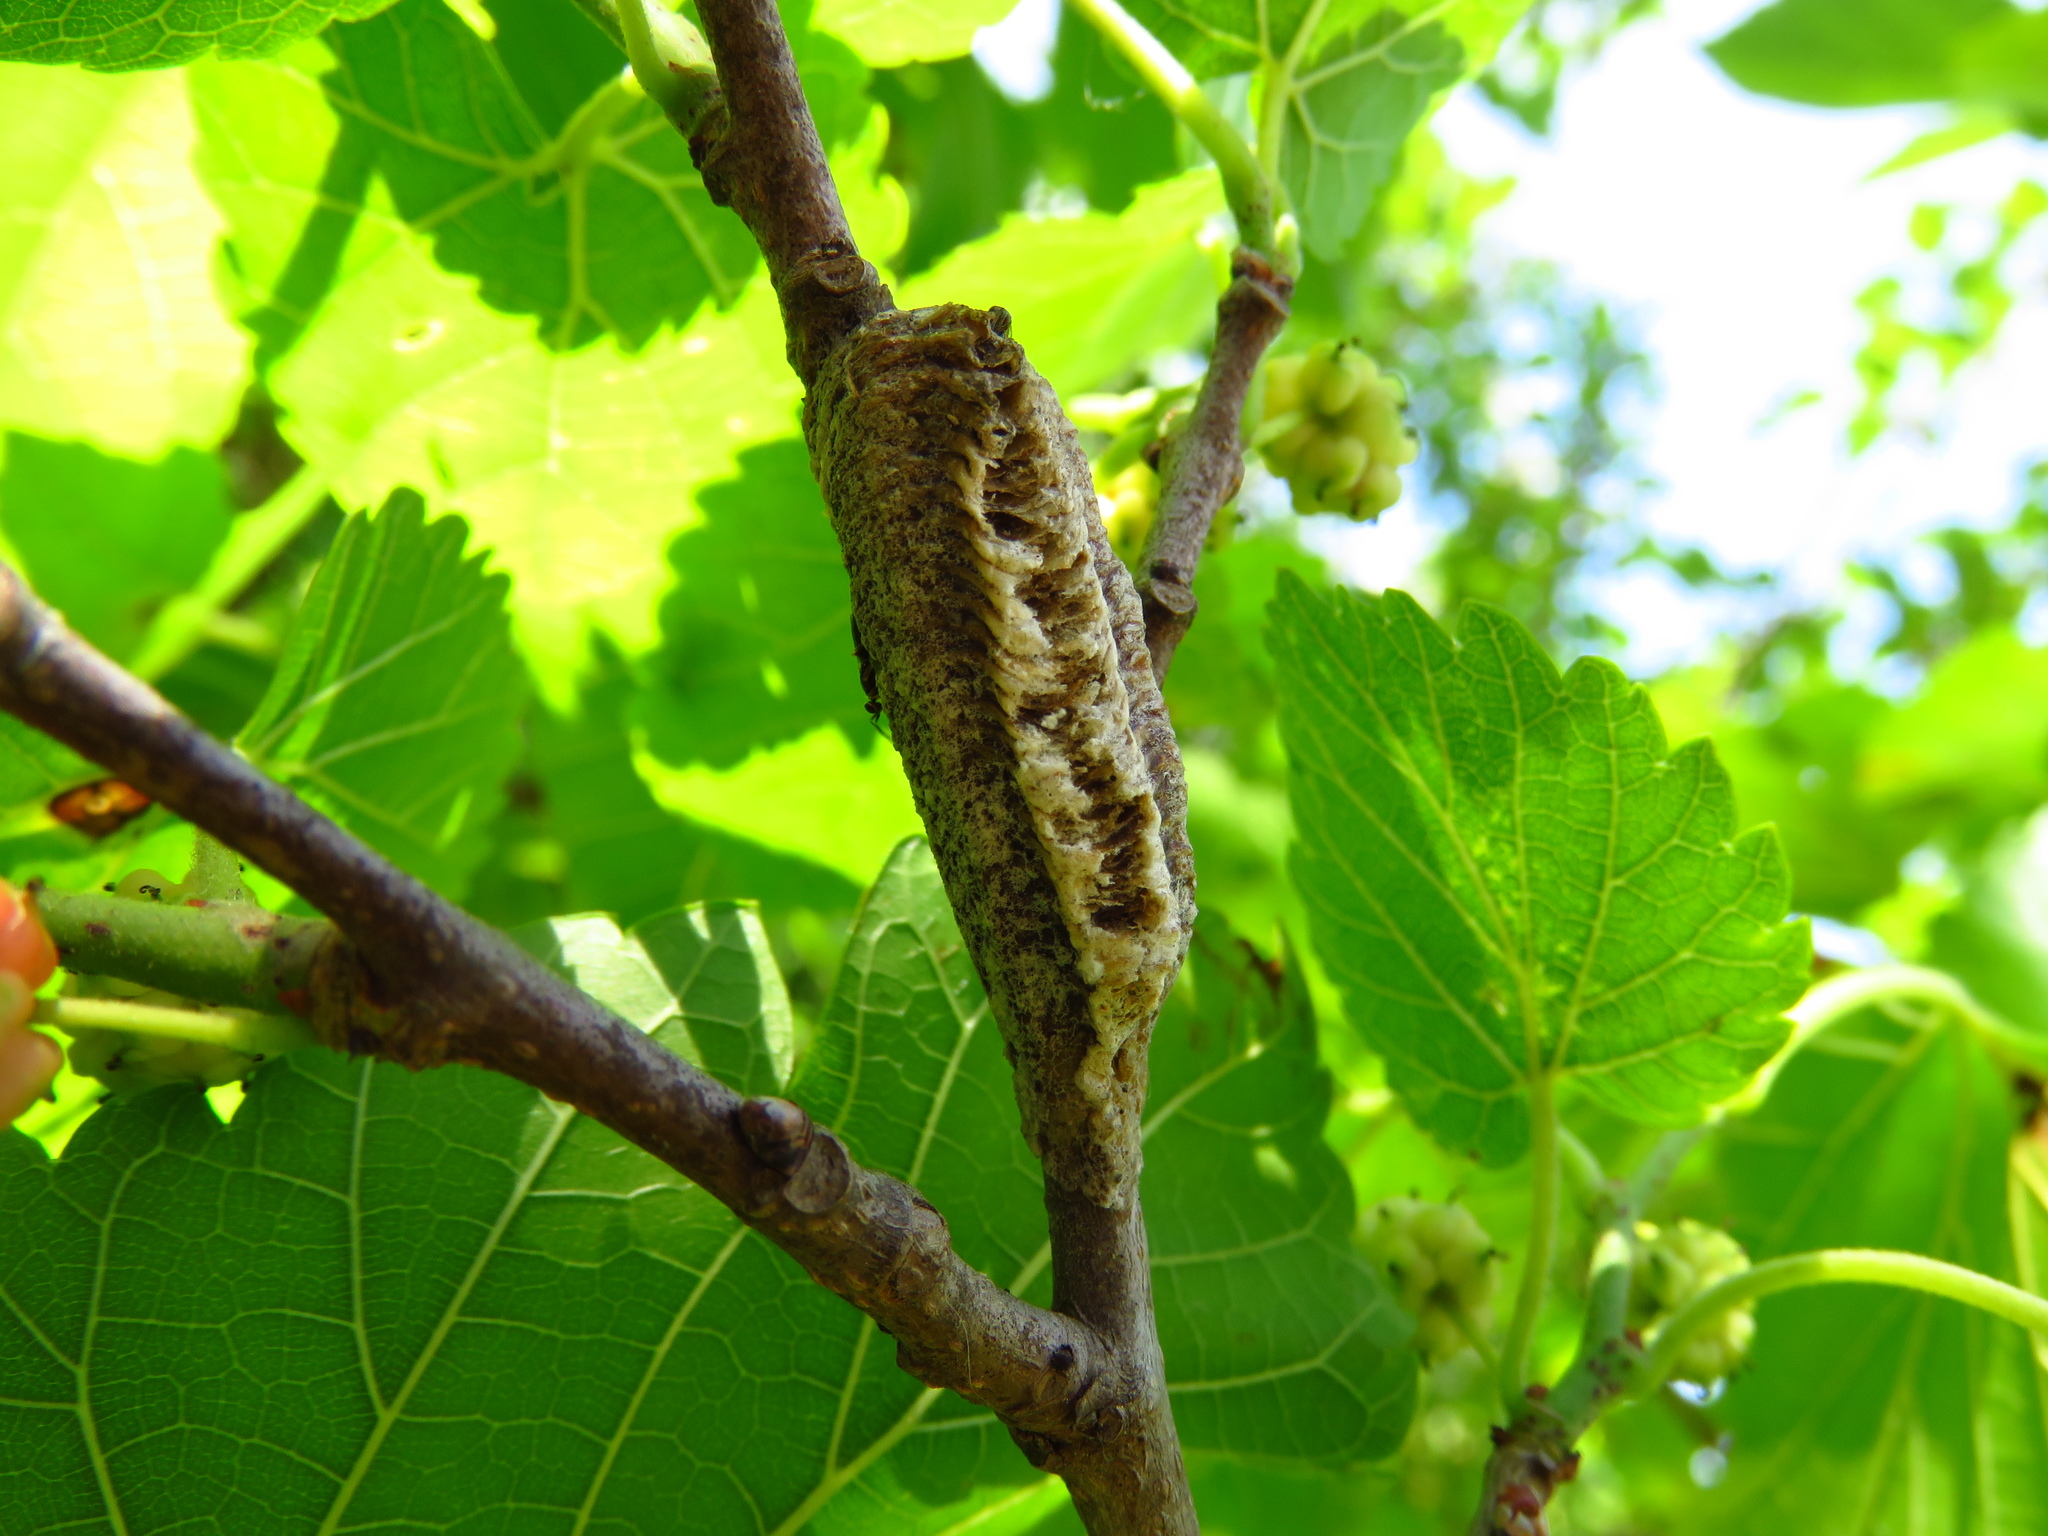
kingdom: Animalia
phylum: Arthropoda
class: Insecta
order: Mantodea
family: Mantidae
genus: Stagmomantis
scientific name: Stagmomantis carolina
